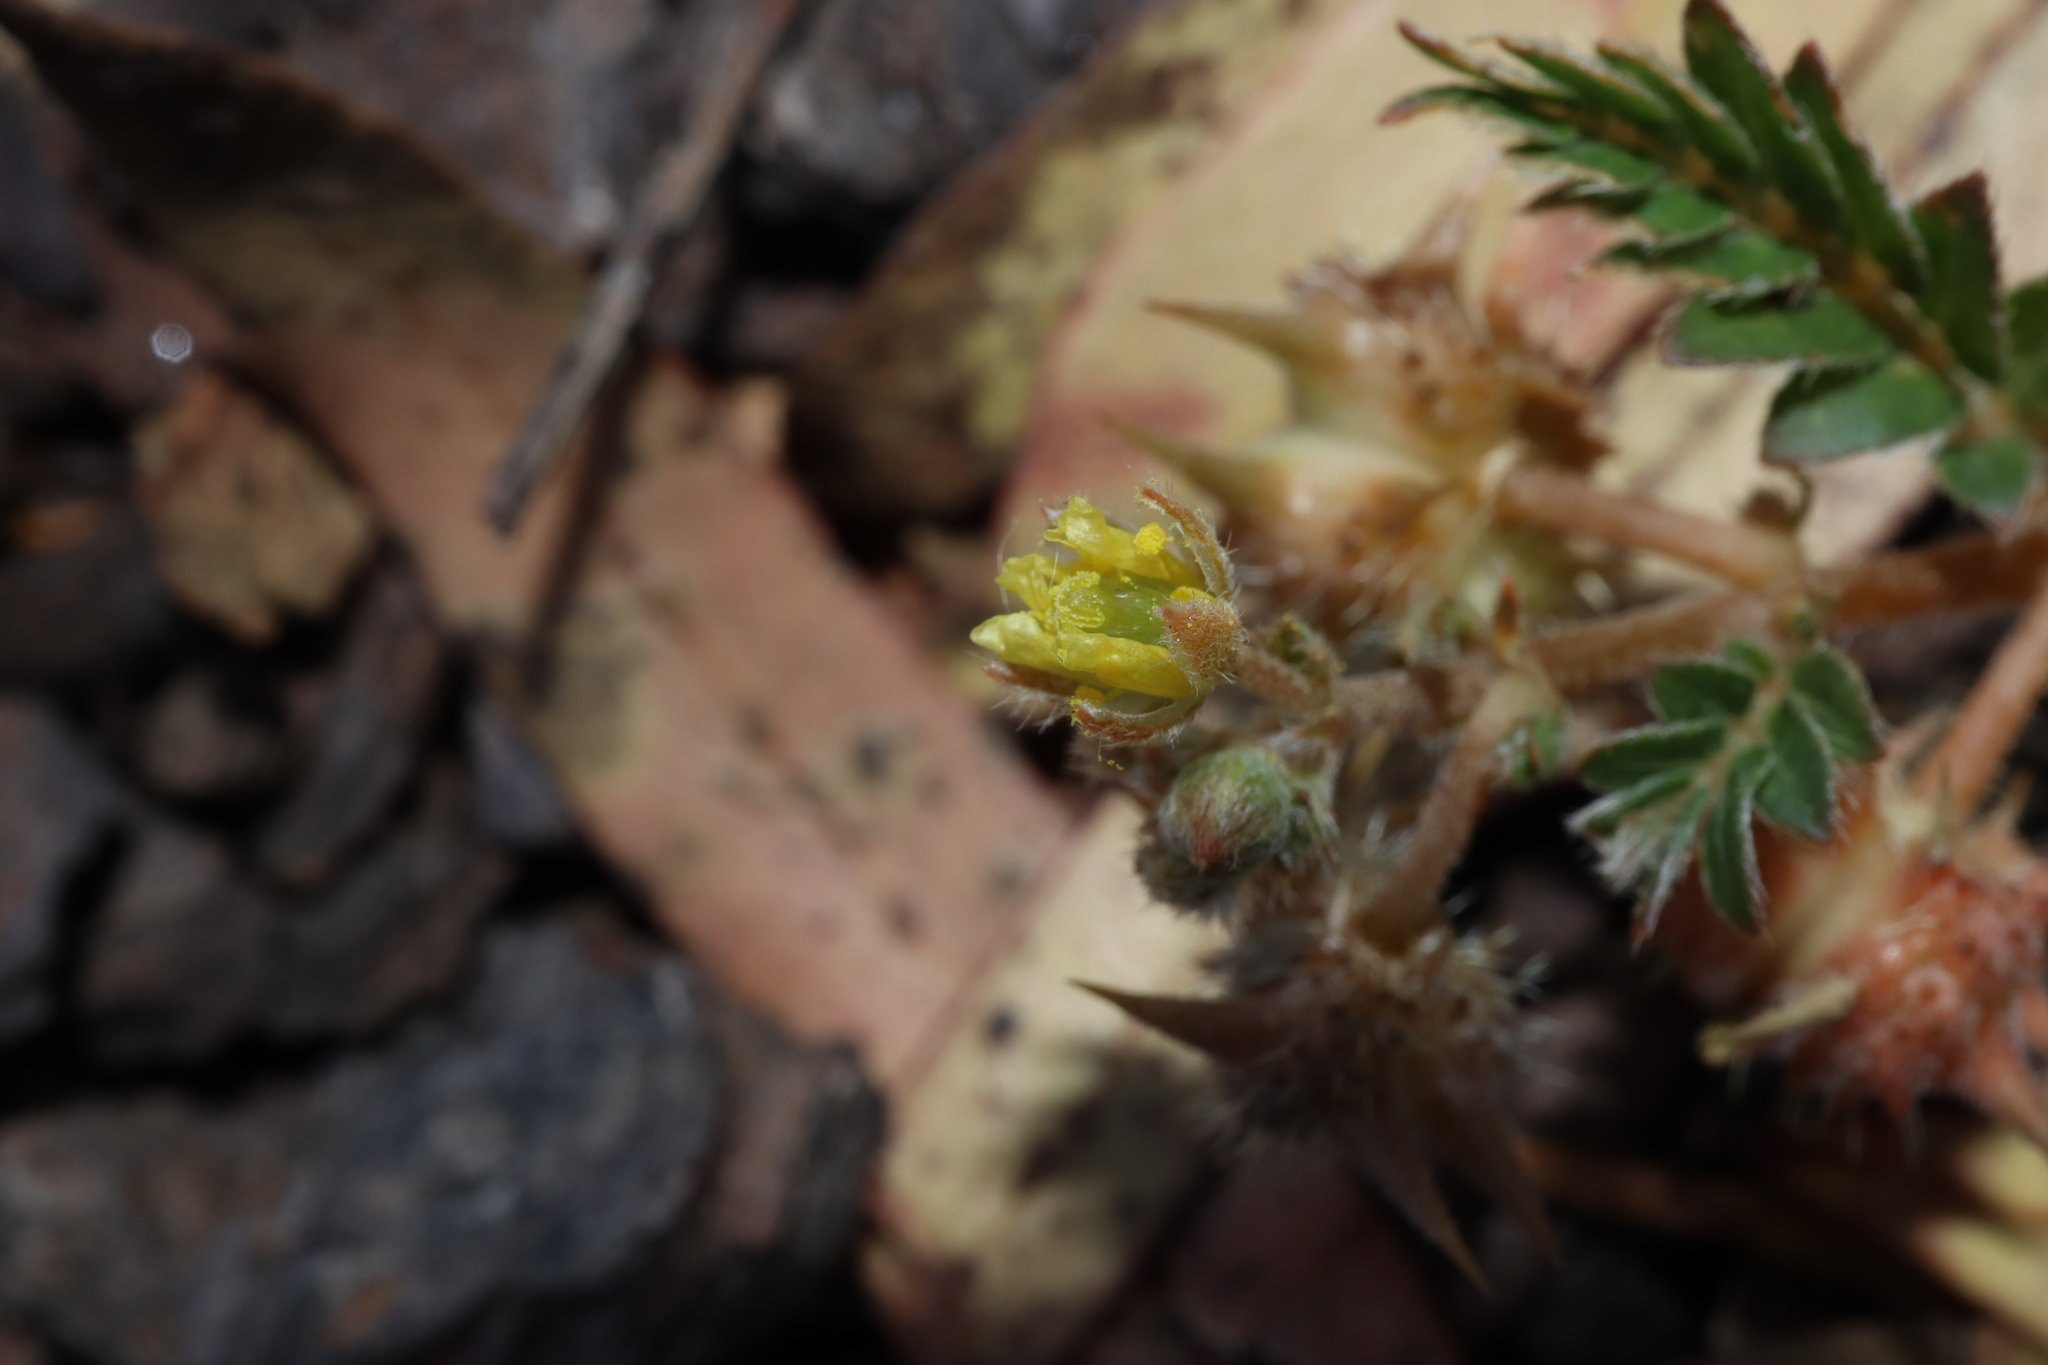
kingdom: Plantae
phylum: Tracheophyta
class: Magnoliopsida
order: Zygophyllales
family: Zygophyllaceae
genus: Tribulus
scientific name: Tribulus terrestris
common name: Puncturevine
